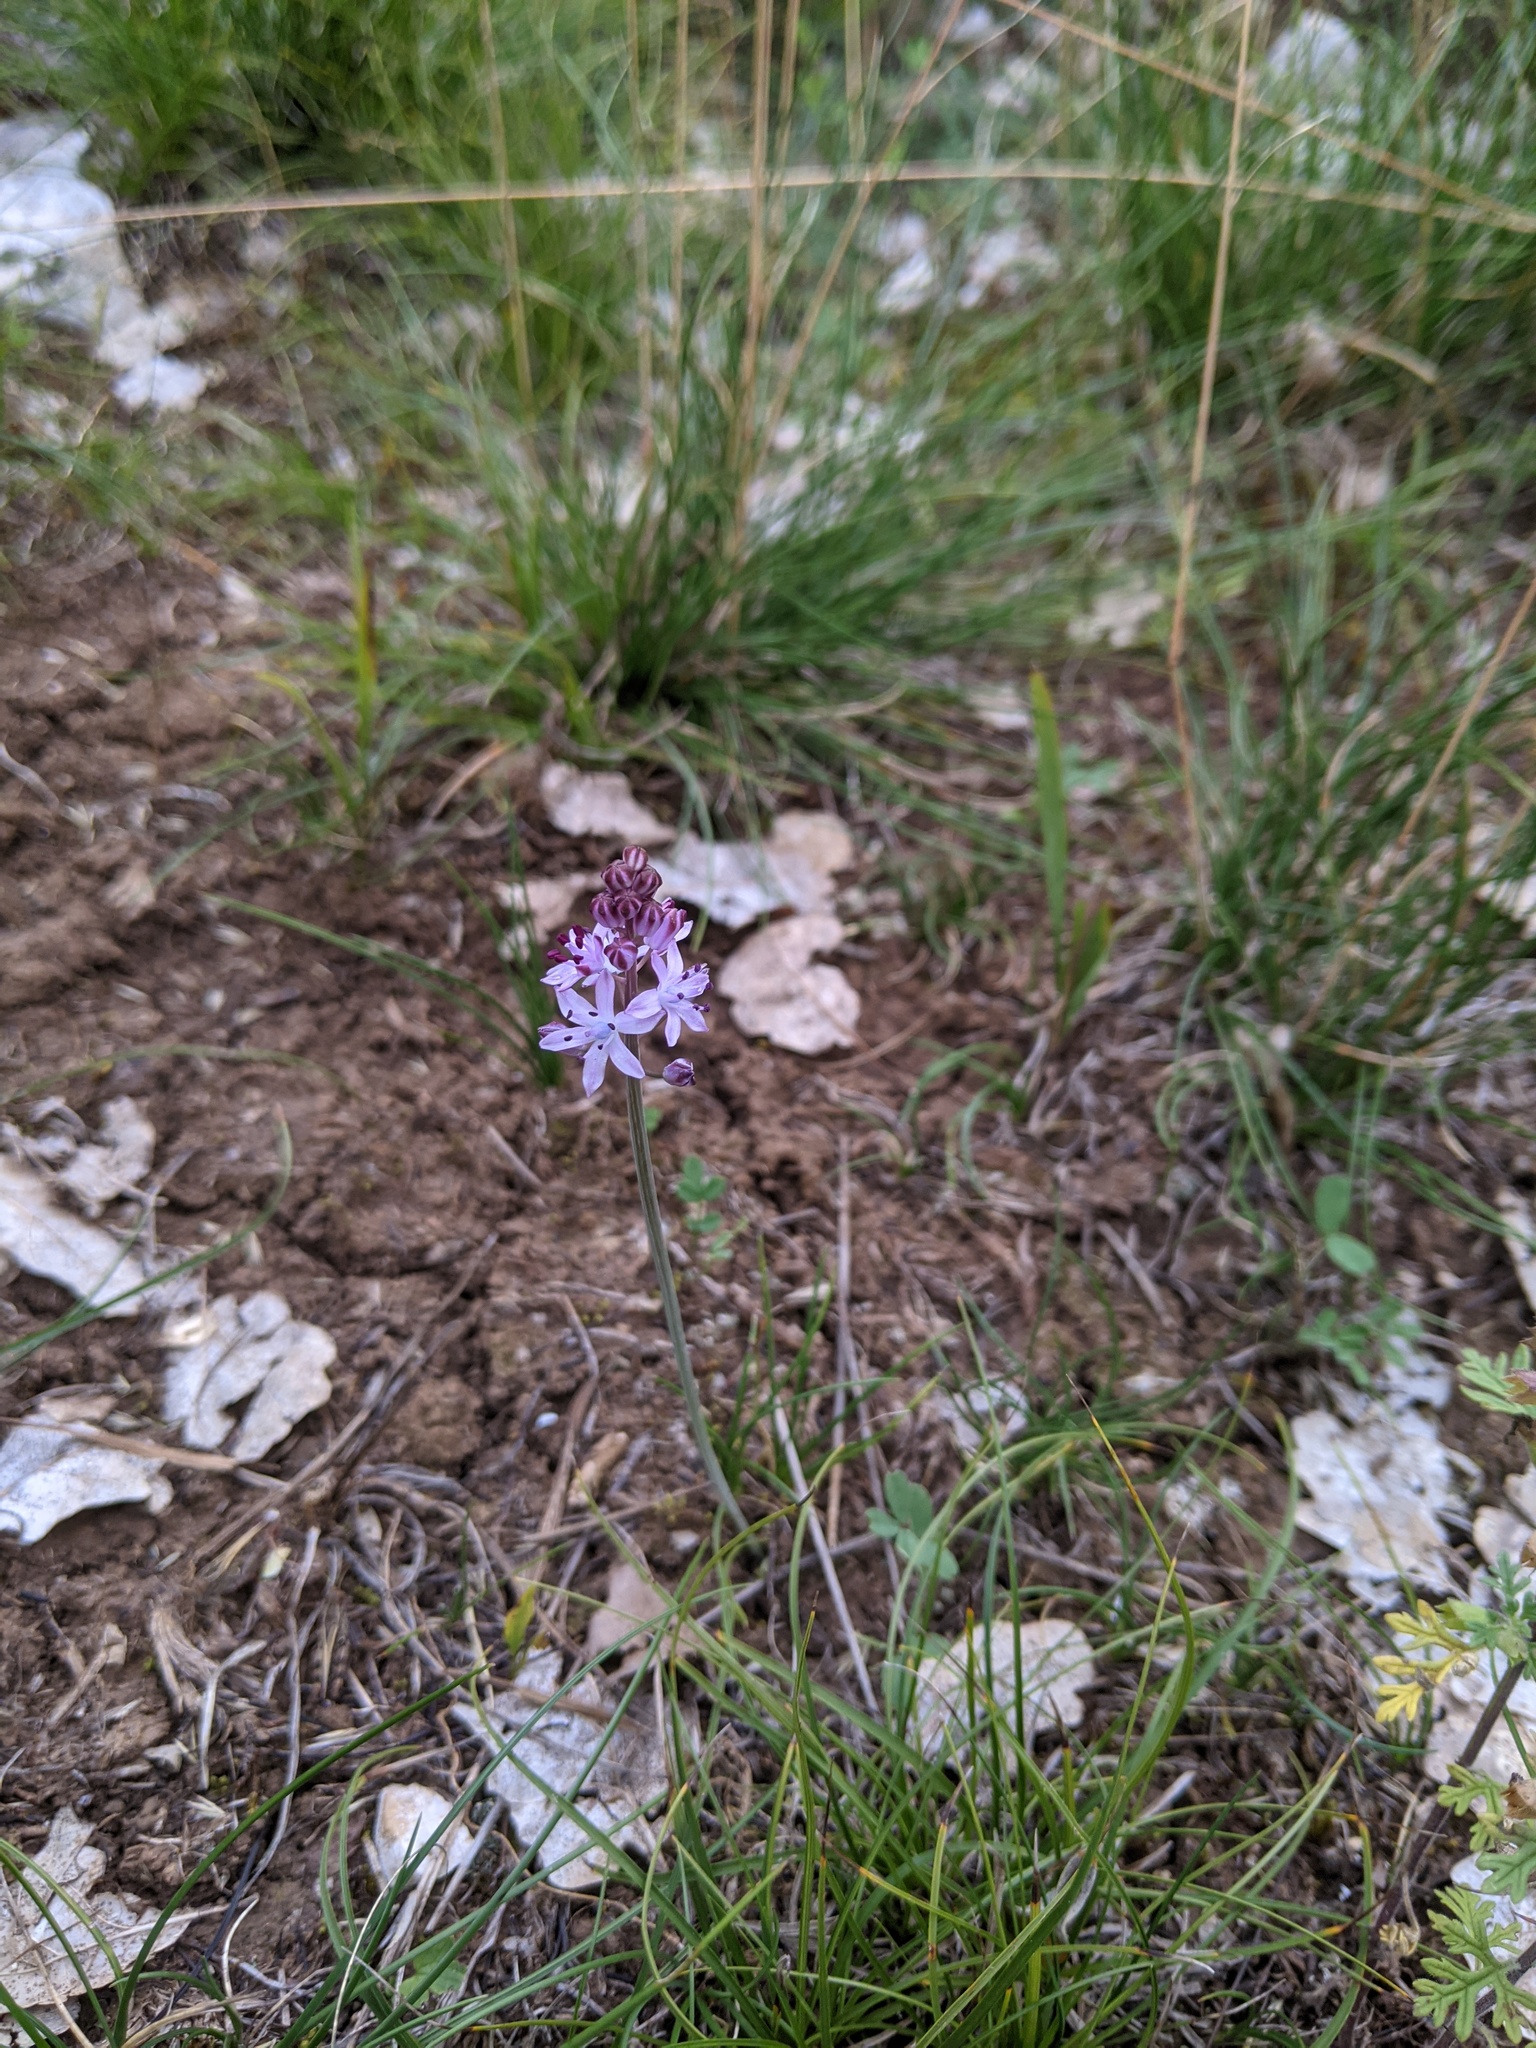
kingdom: Plantae
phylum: Tracheophyta
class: Liliopsida
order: Asparagales
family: Asparagaceae
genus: Prospero
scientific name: Prospero autumnale
